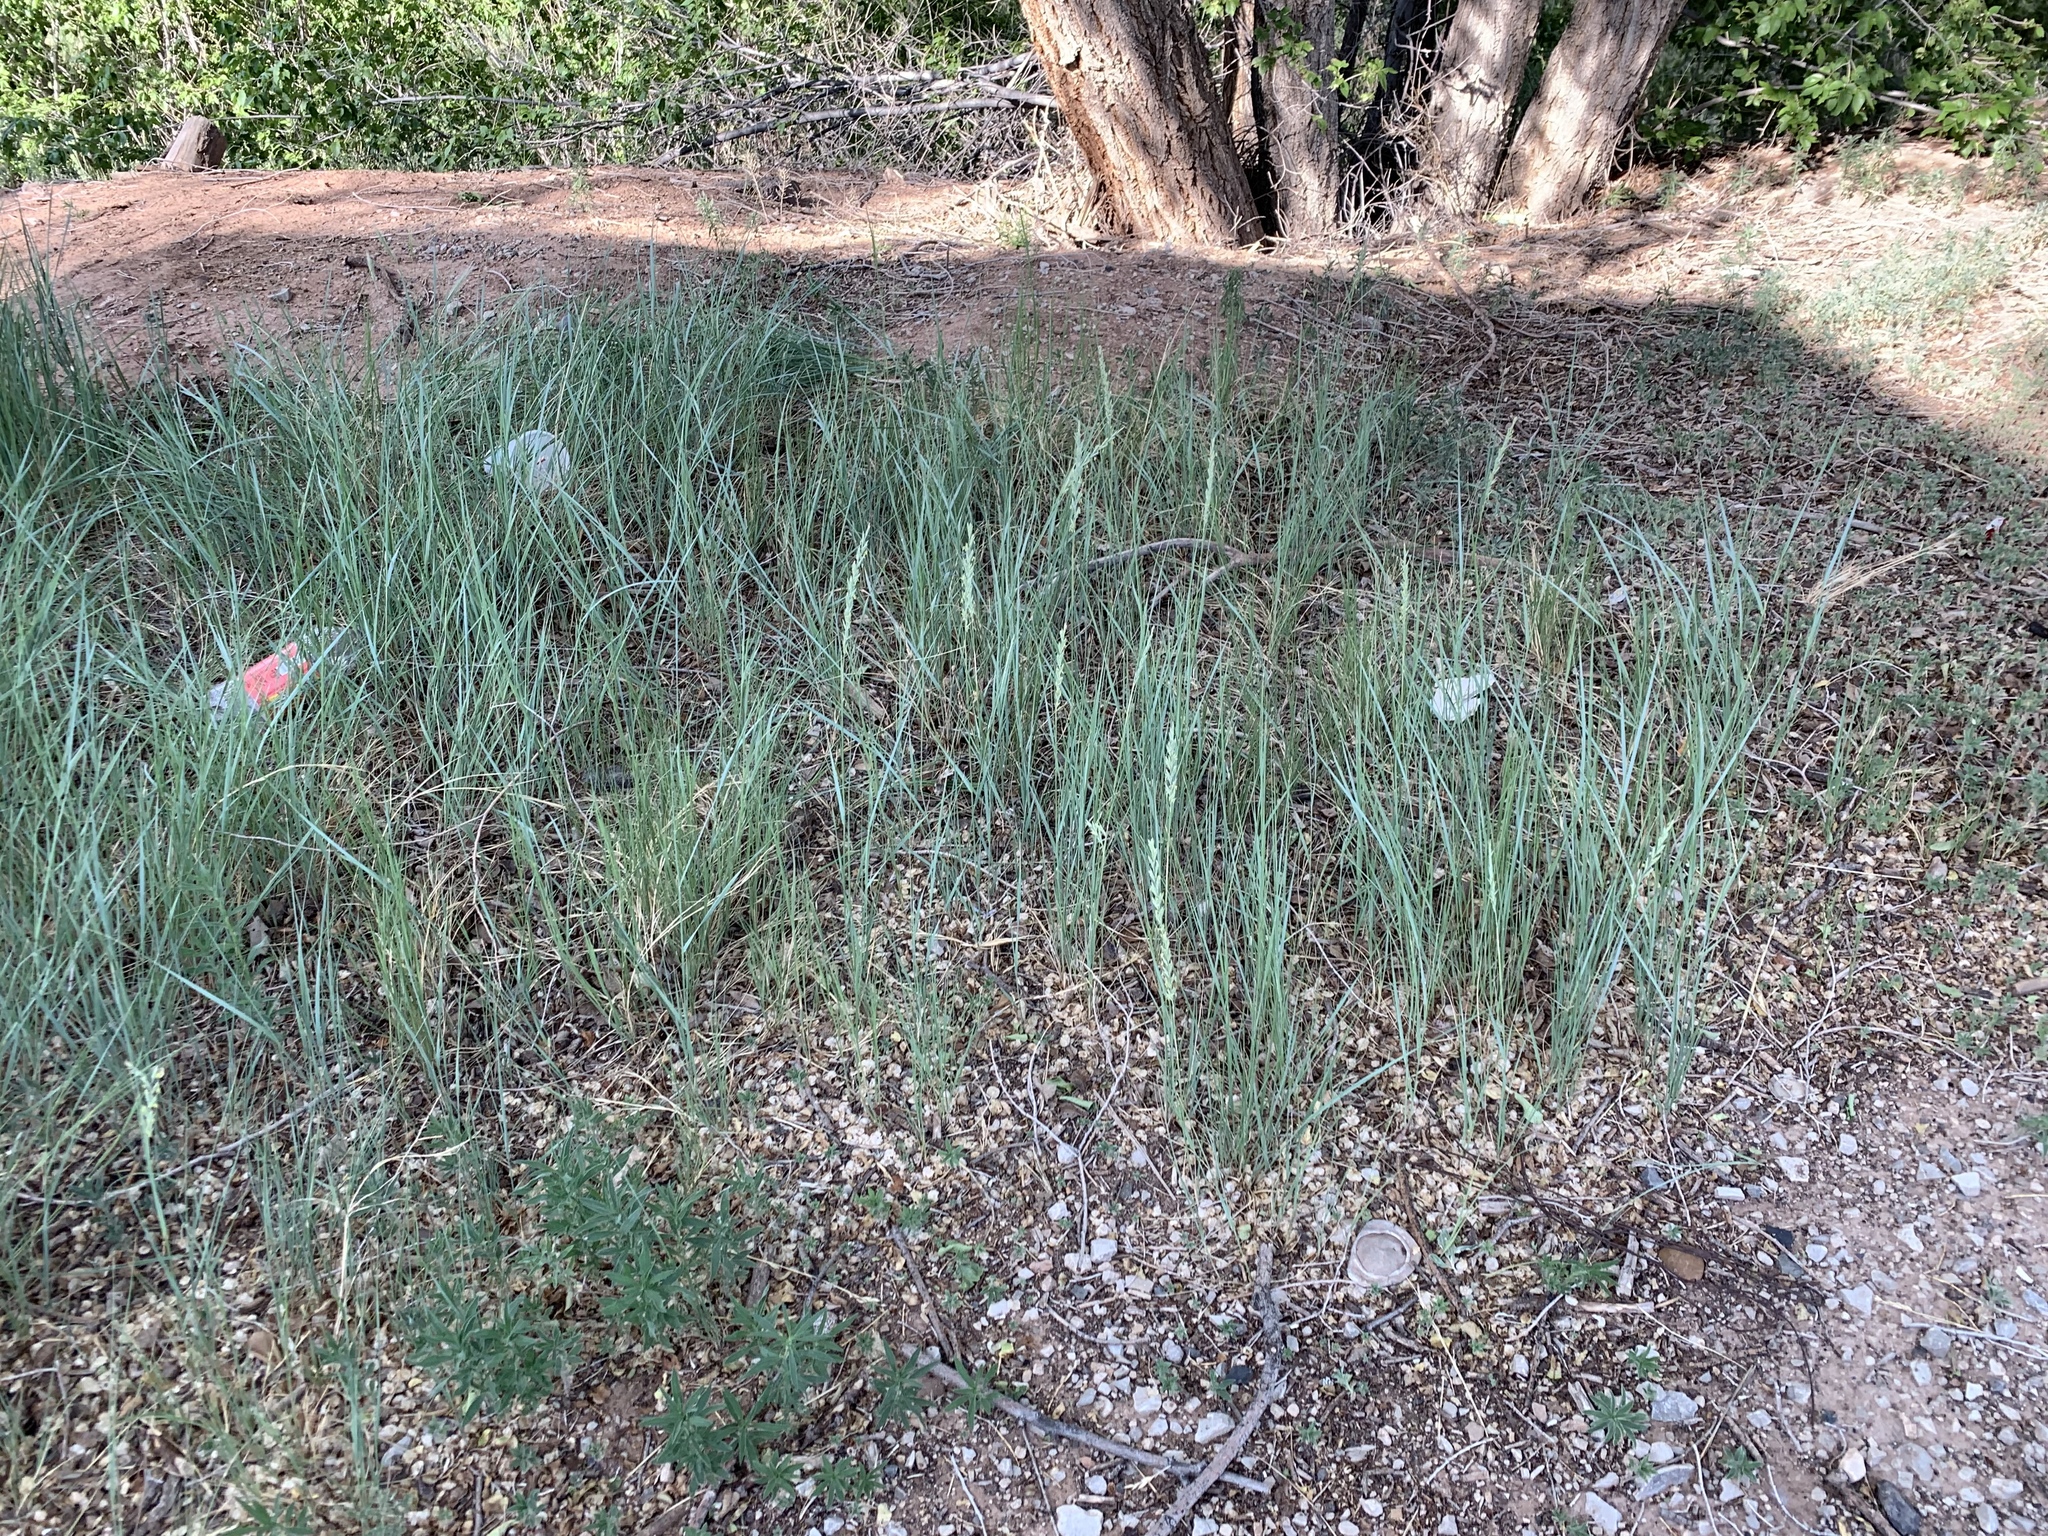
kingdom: Plantae
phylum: Tracheophyta
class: Liliopsida
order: Poales
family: Poaceae
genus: Elymus
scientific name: Elymus violaceus
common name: Arctic wheatgrass
